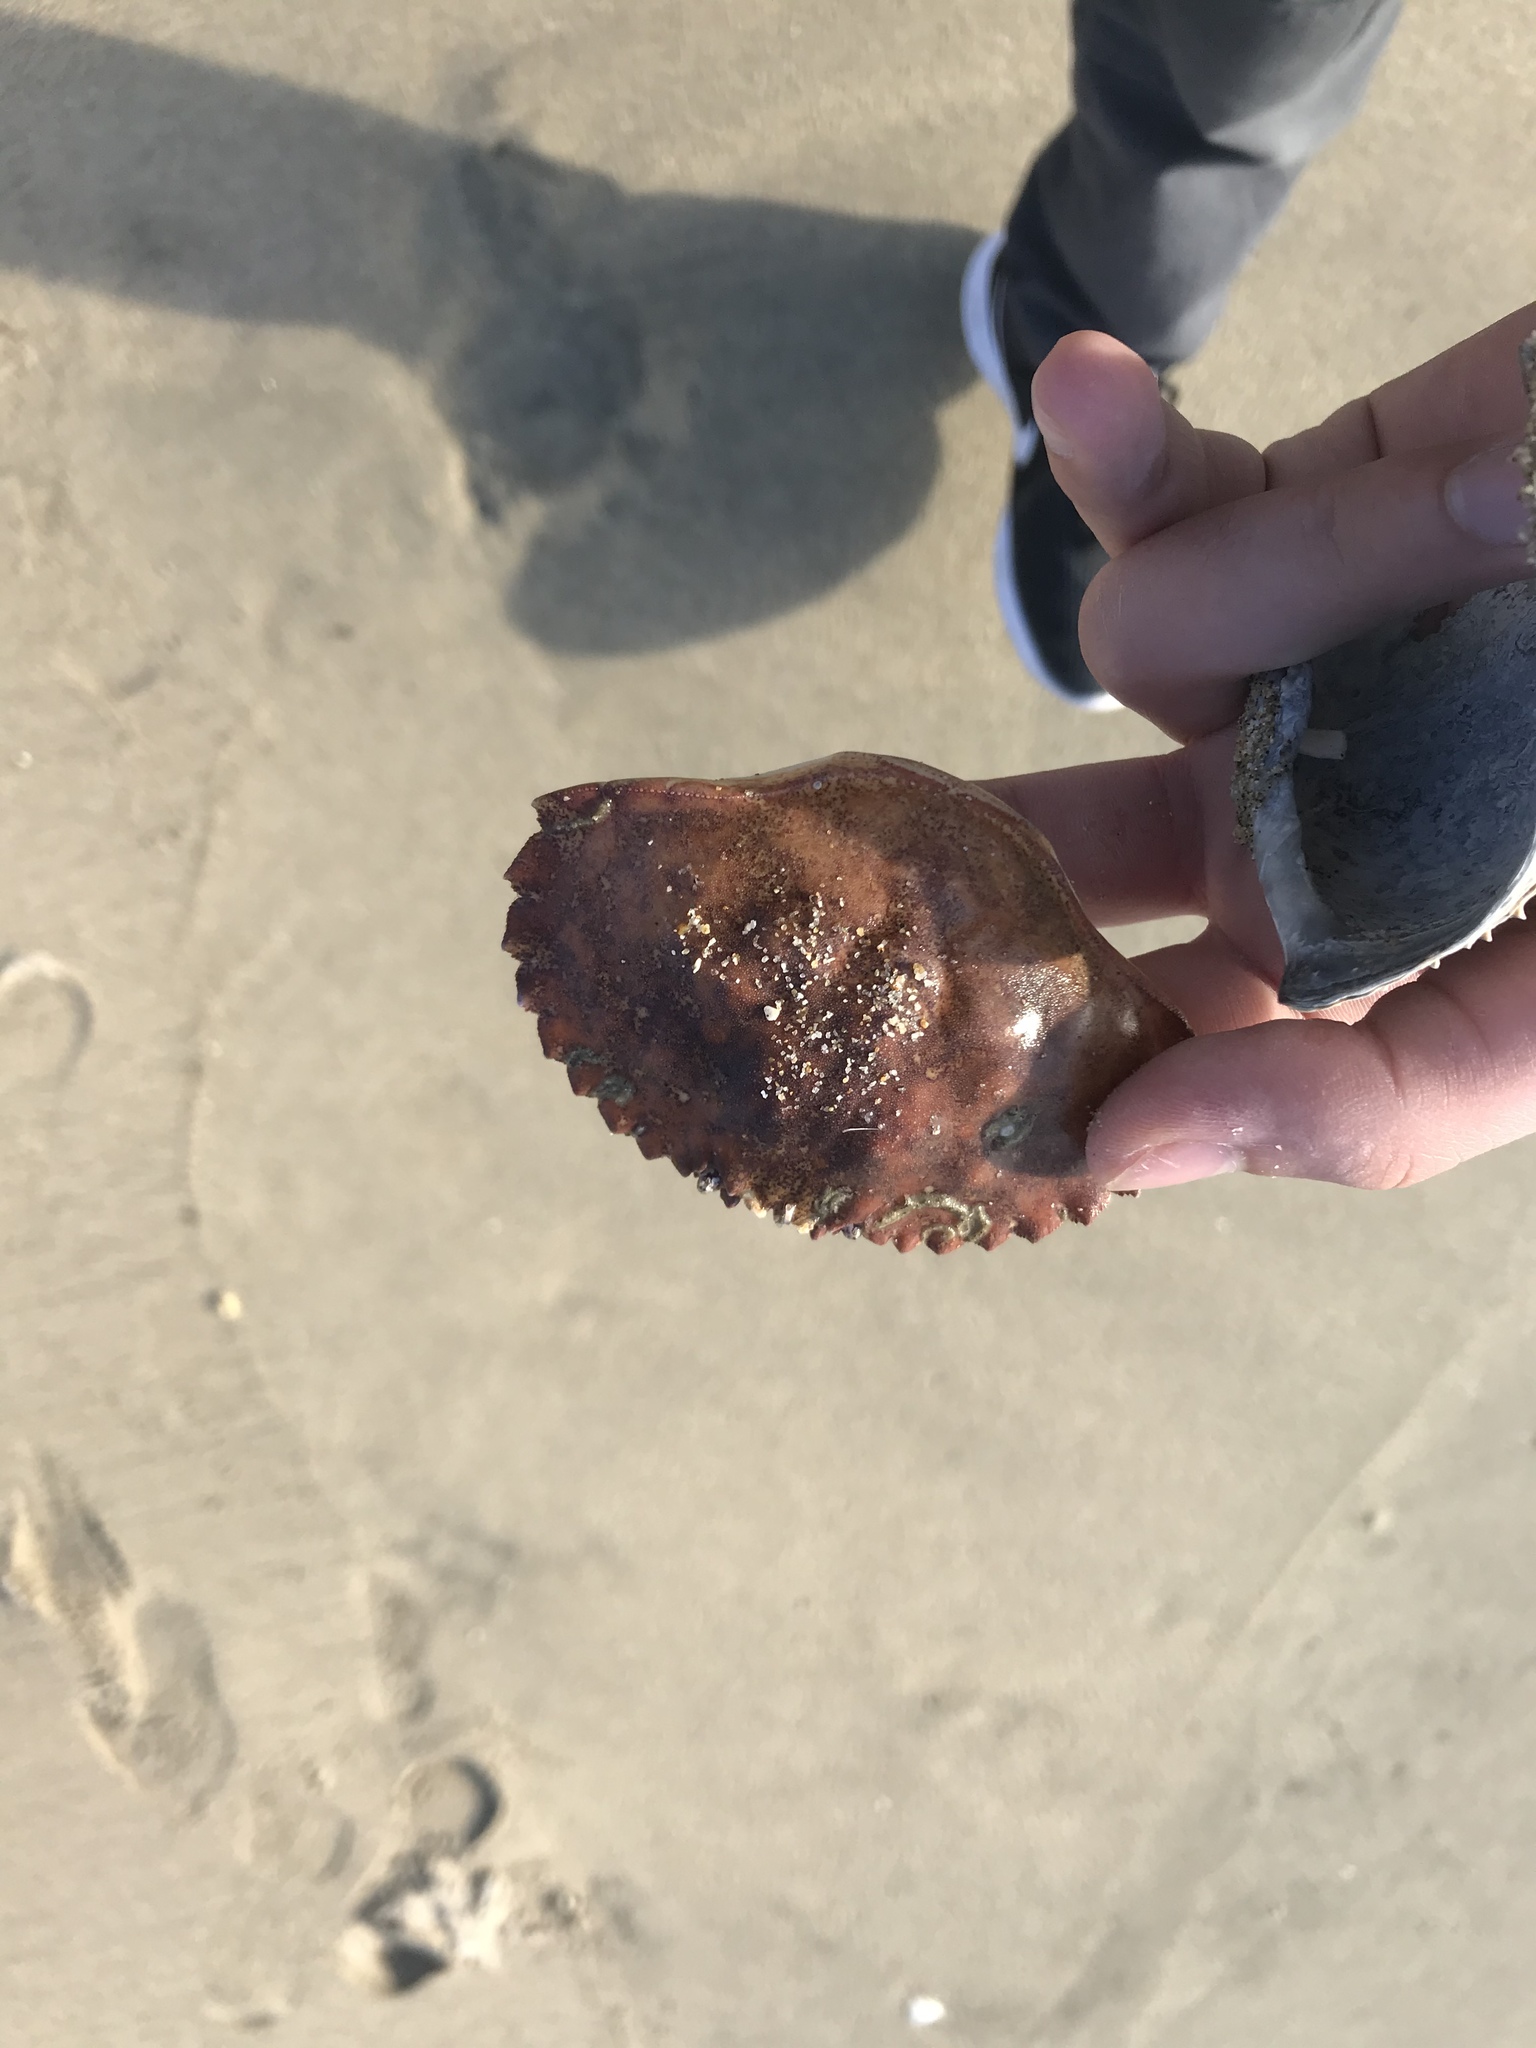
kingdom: Animalia
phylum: Arthropoda
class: Malacostraca
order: Decapoda
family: Cancridae
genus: Metacarcinus
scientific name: Metacarcinus anthonyi
